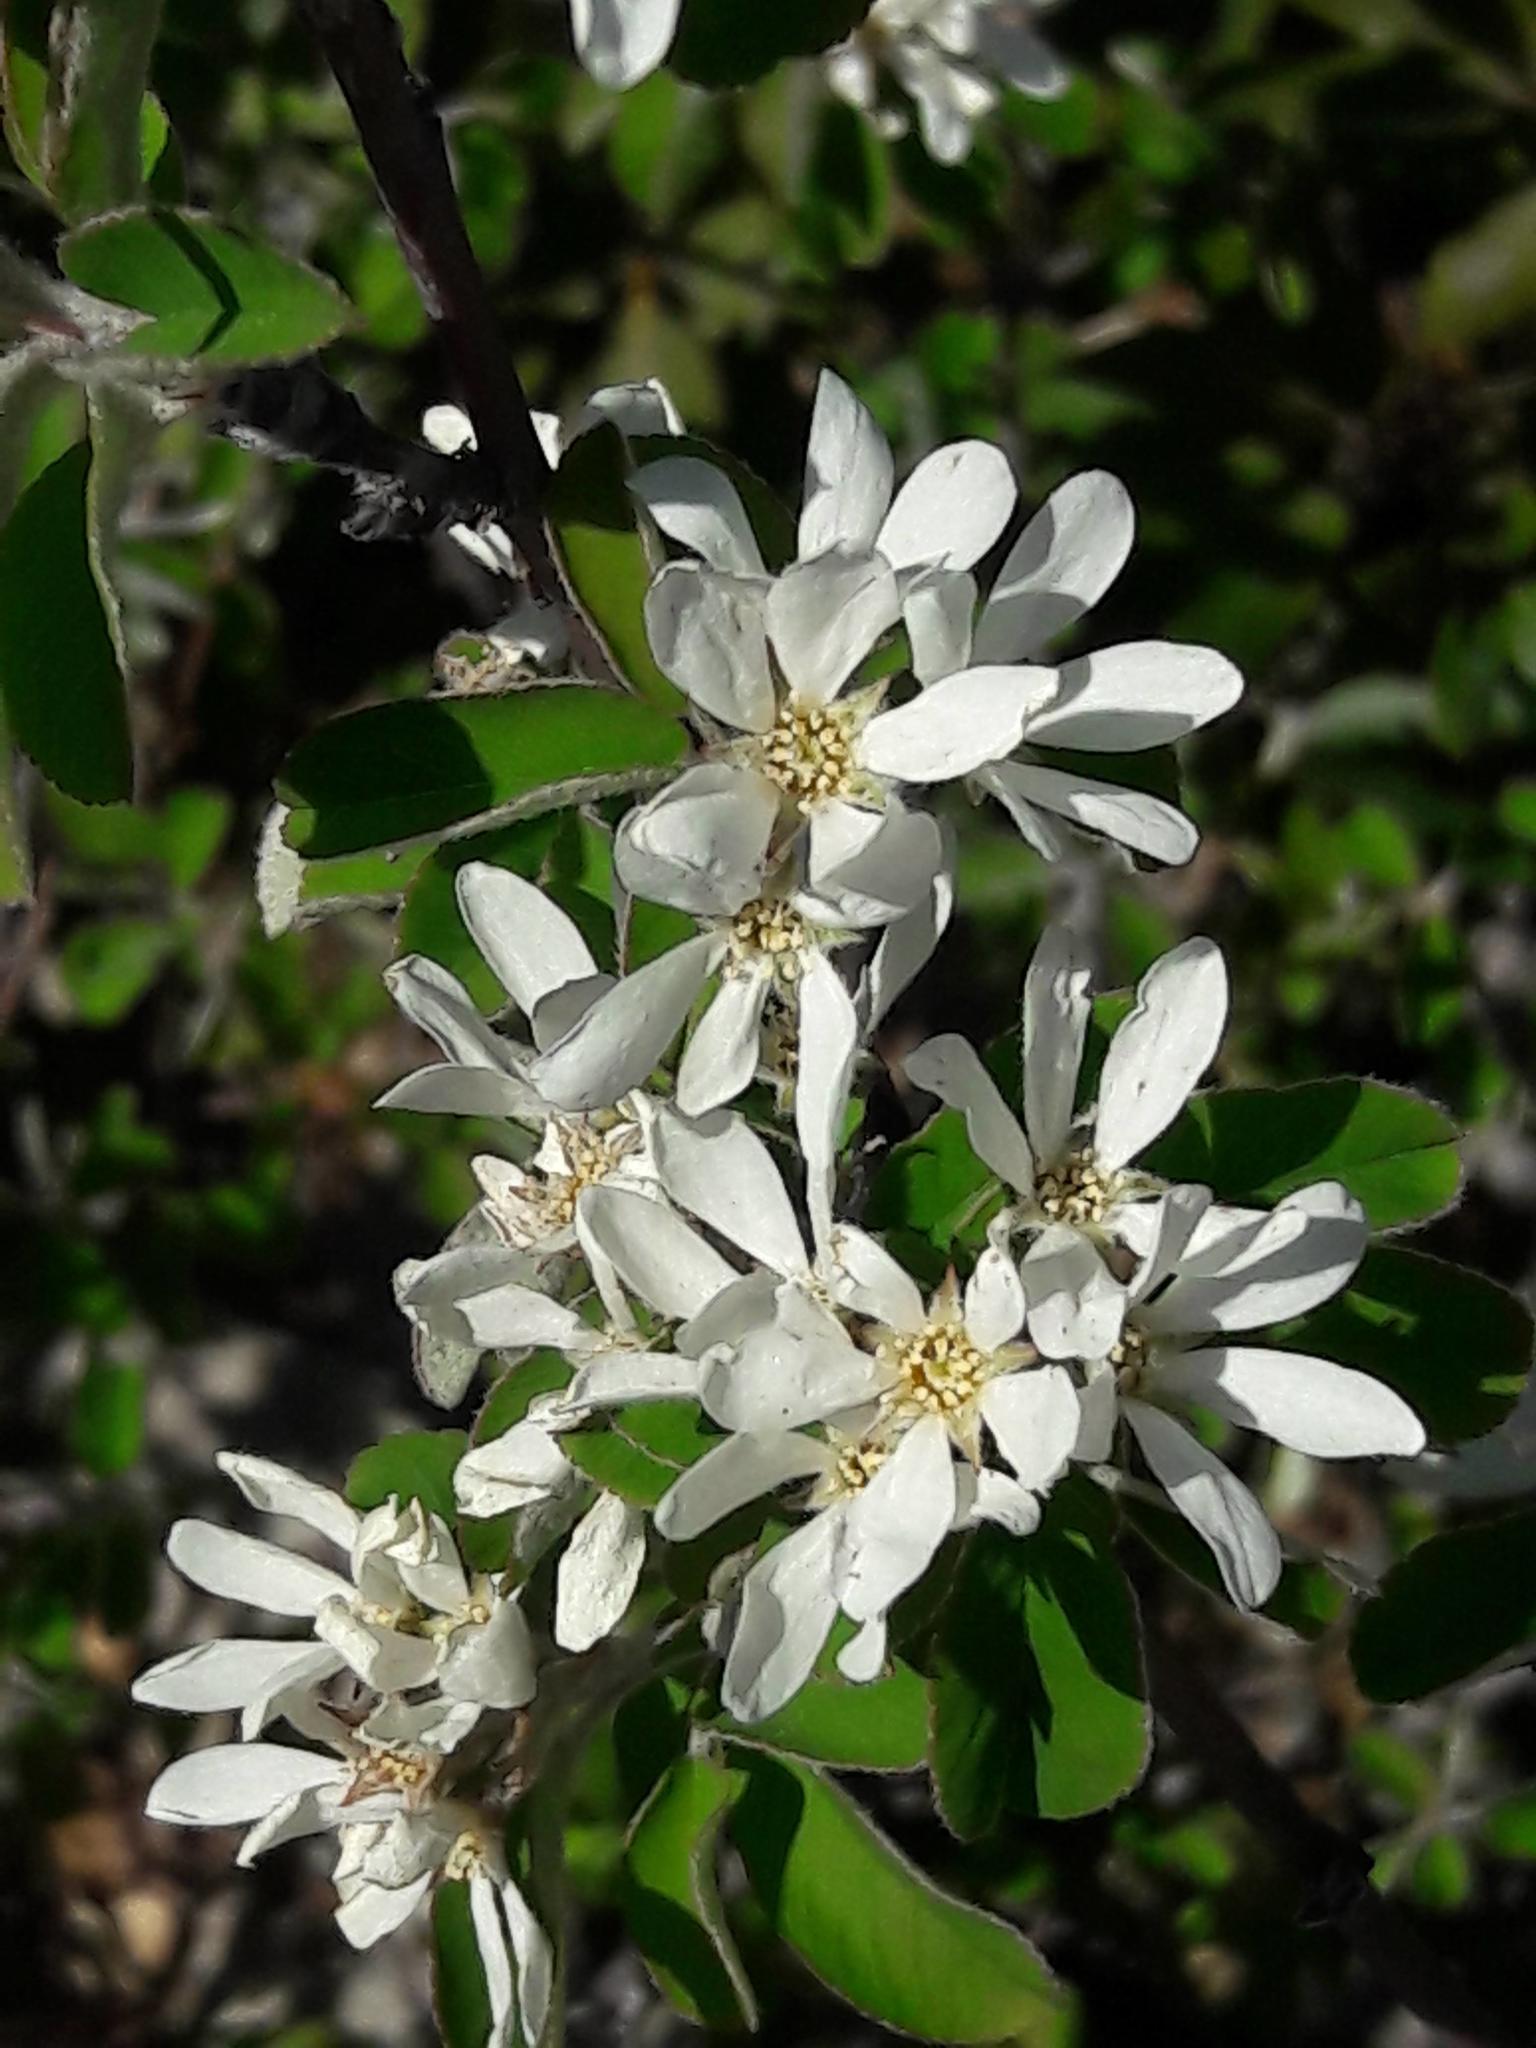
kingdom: Plantae
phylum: Tracheophyta
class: Magnoliopsida
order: Rosales
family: Rosaceae
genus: Amelanchier
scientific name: Amelanchier ovalis
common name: Serviceberry
